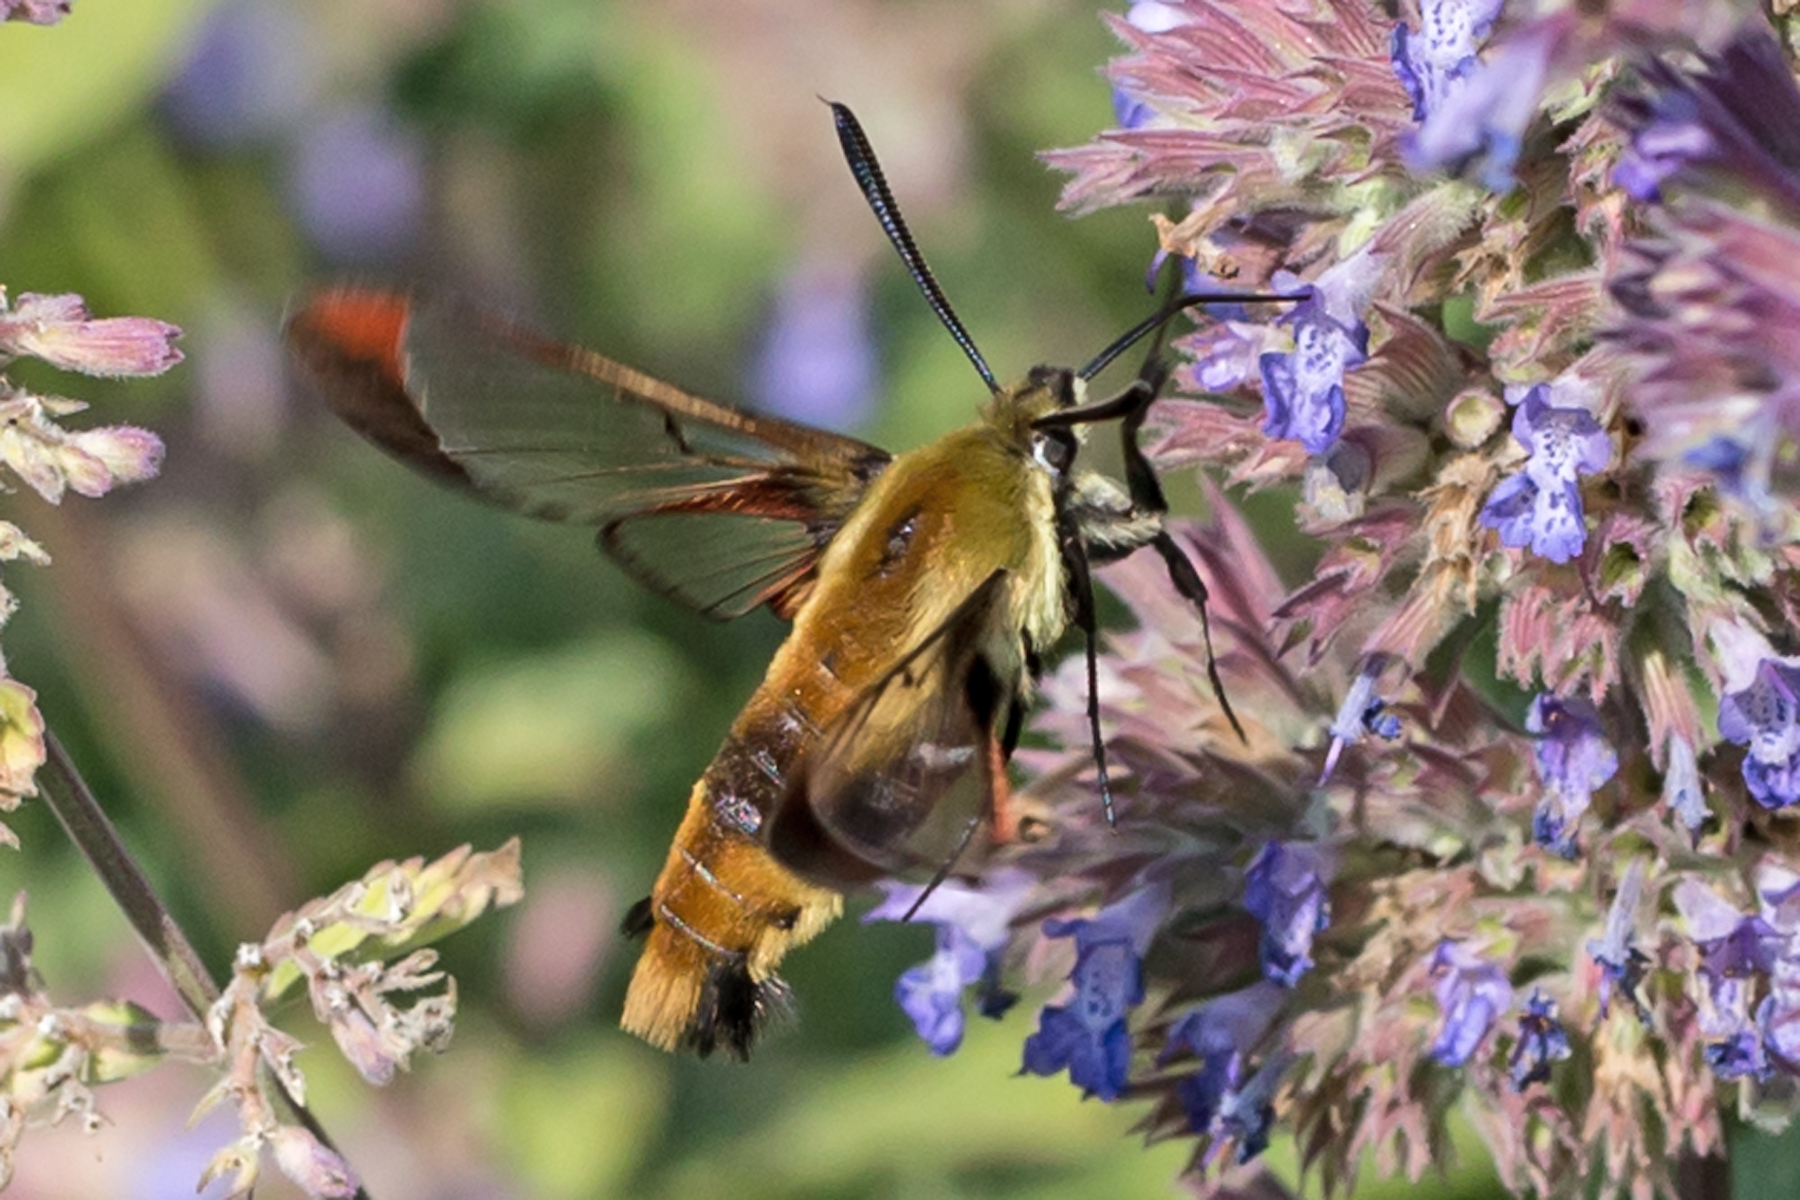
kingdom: Animalia
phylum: Arthropoda
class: Insecta
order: Lepidoptera
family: Sphingidae
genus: Hemaris
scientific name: Hemaris diffinis
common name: Bumblebee moth
